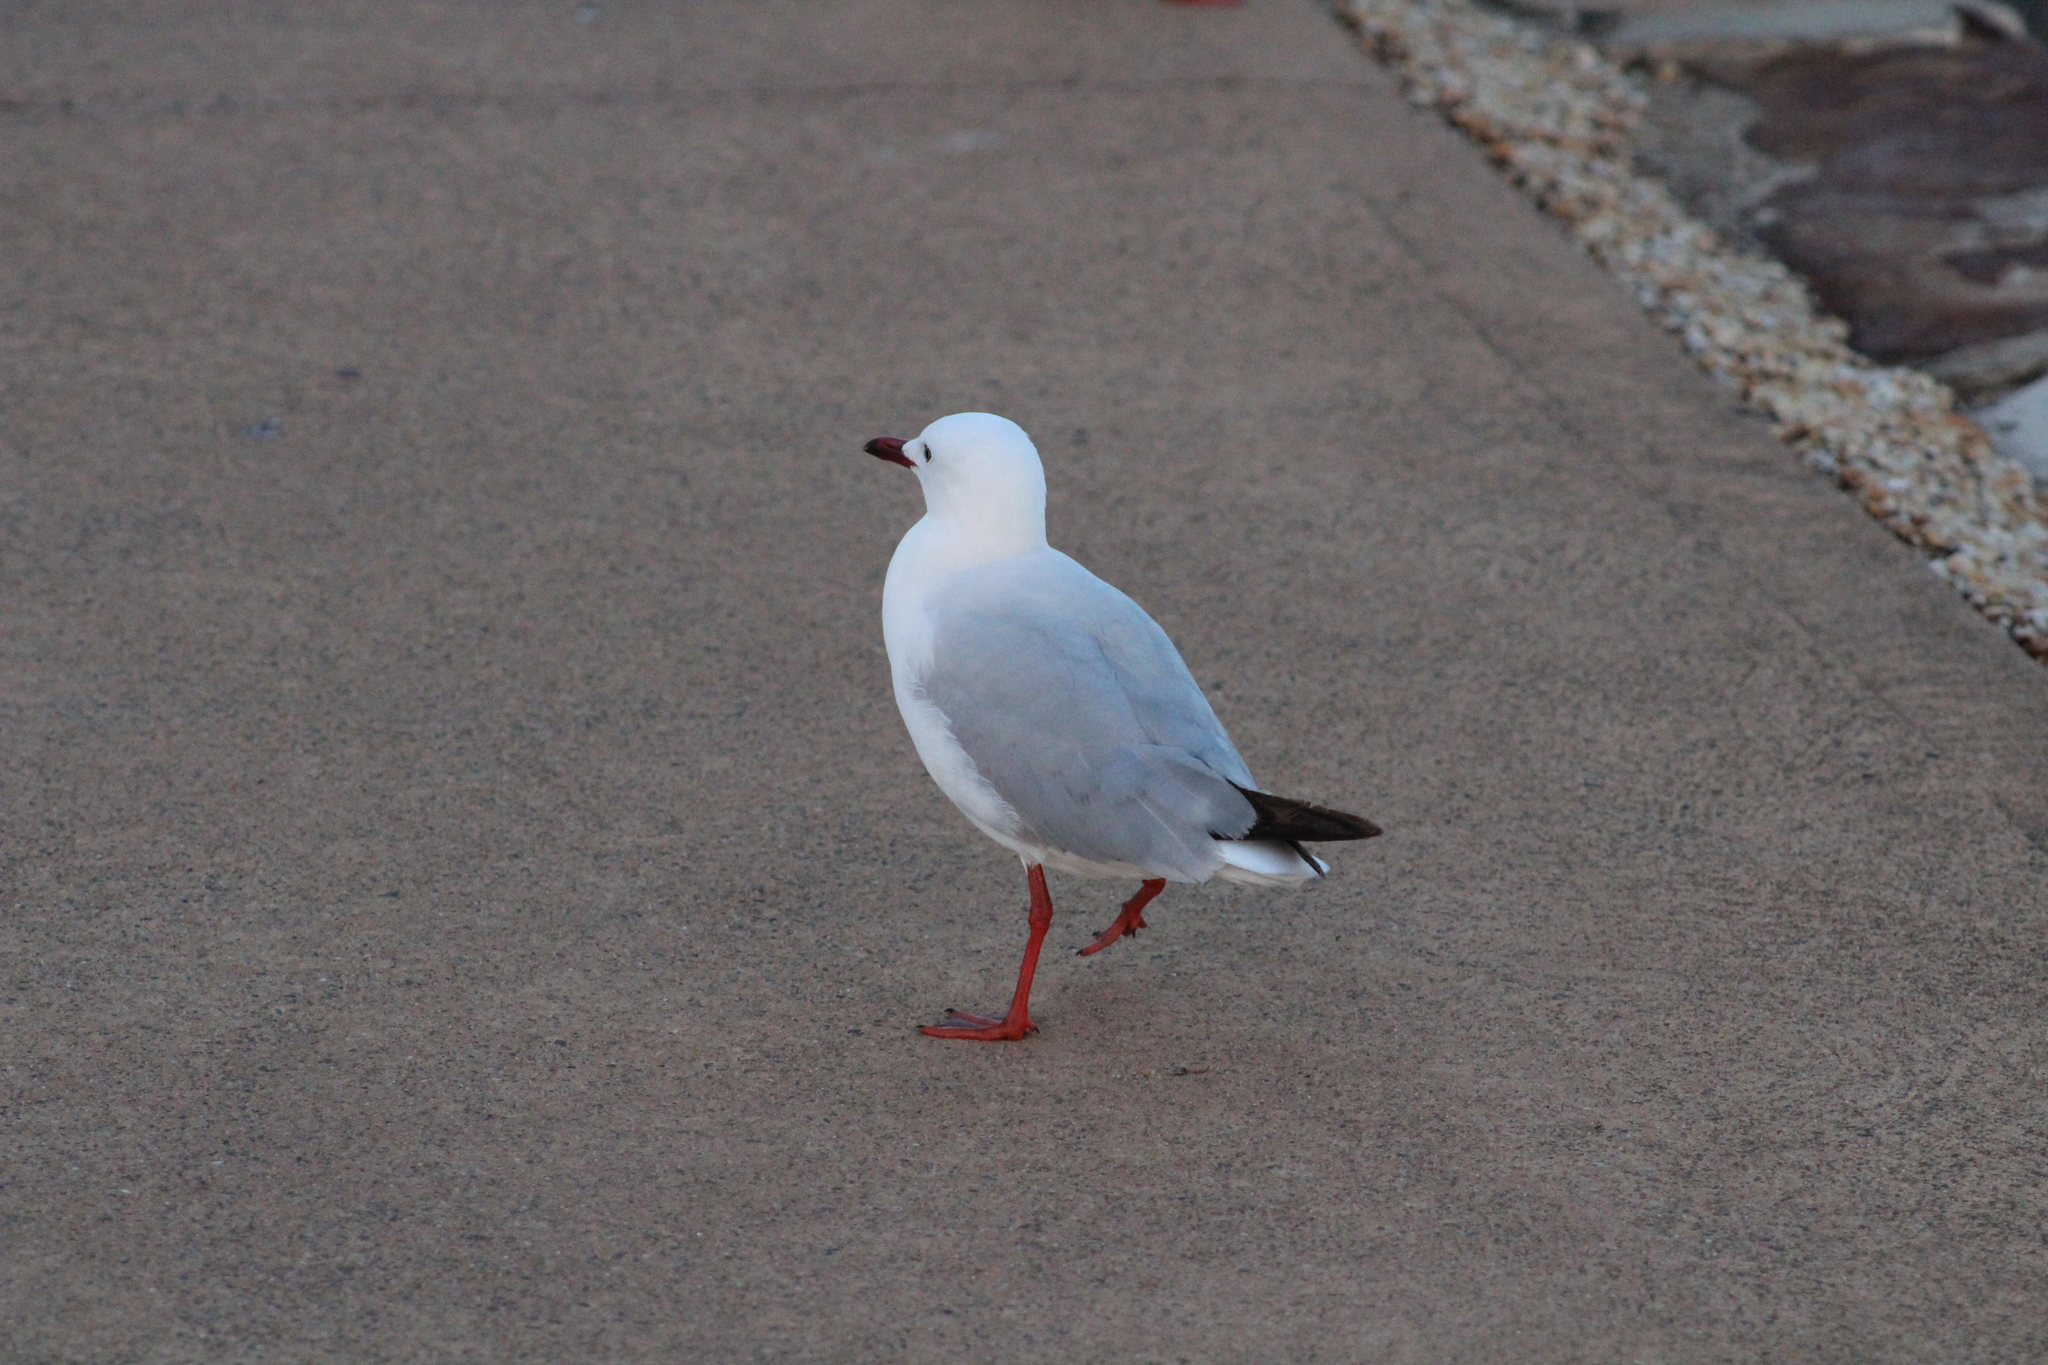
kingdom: Animalia
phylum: Chordata
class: Aves
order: Charadriiformes
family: Laridae
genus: Chroicocephalus
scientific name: Chroicocephalus novaehollandiae
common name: Silver gull
